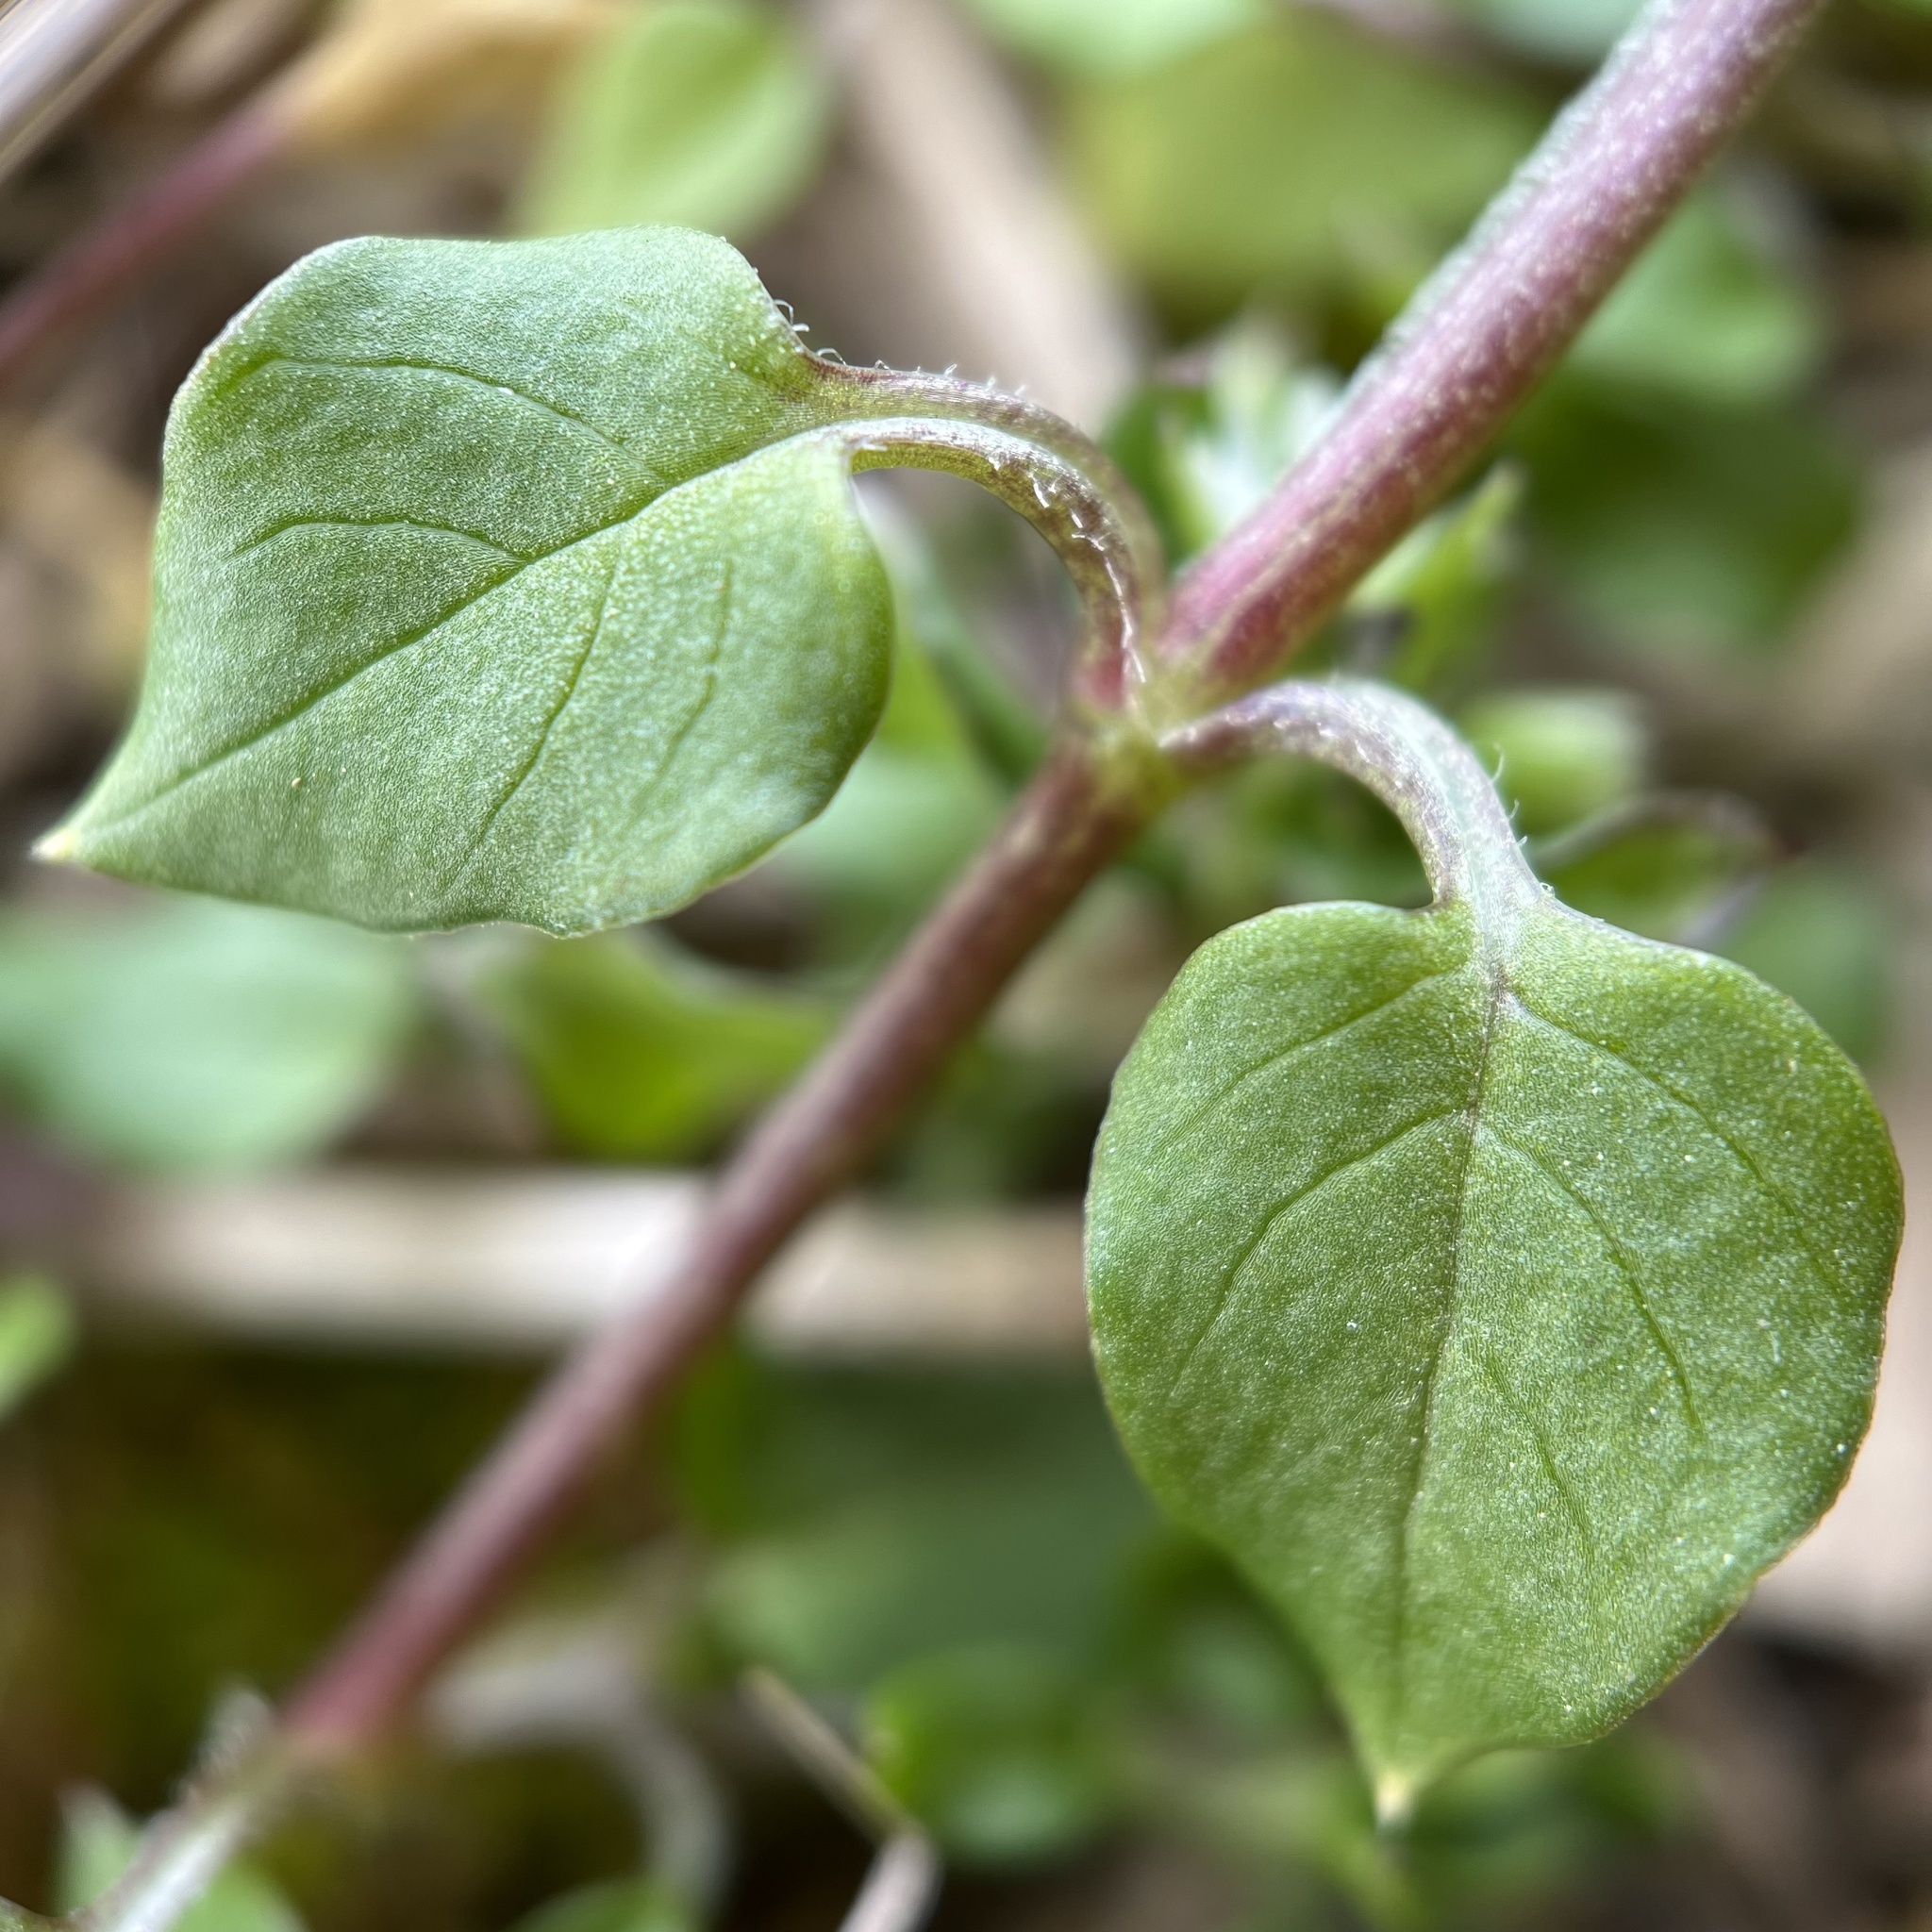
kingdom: Plantae
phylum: Tracheophyta
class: Magnoliopsida
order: Caryophyllales
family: Caryophyllaceae
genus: Stellaria
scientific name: Stellaria media
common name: Common chickweed
